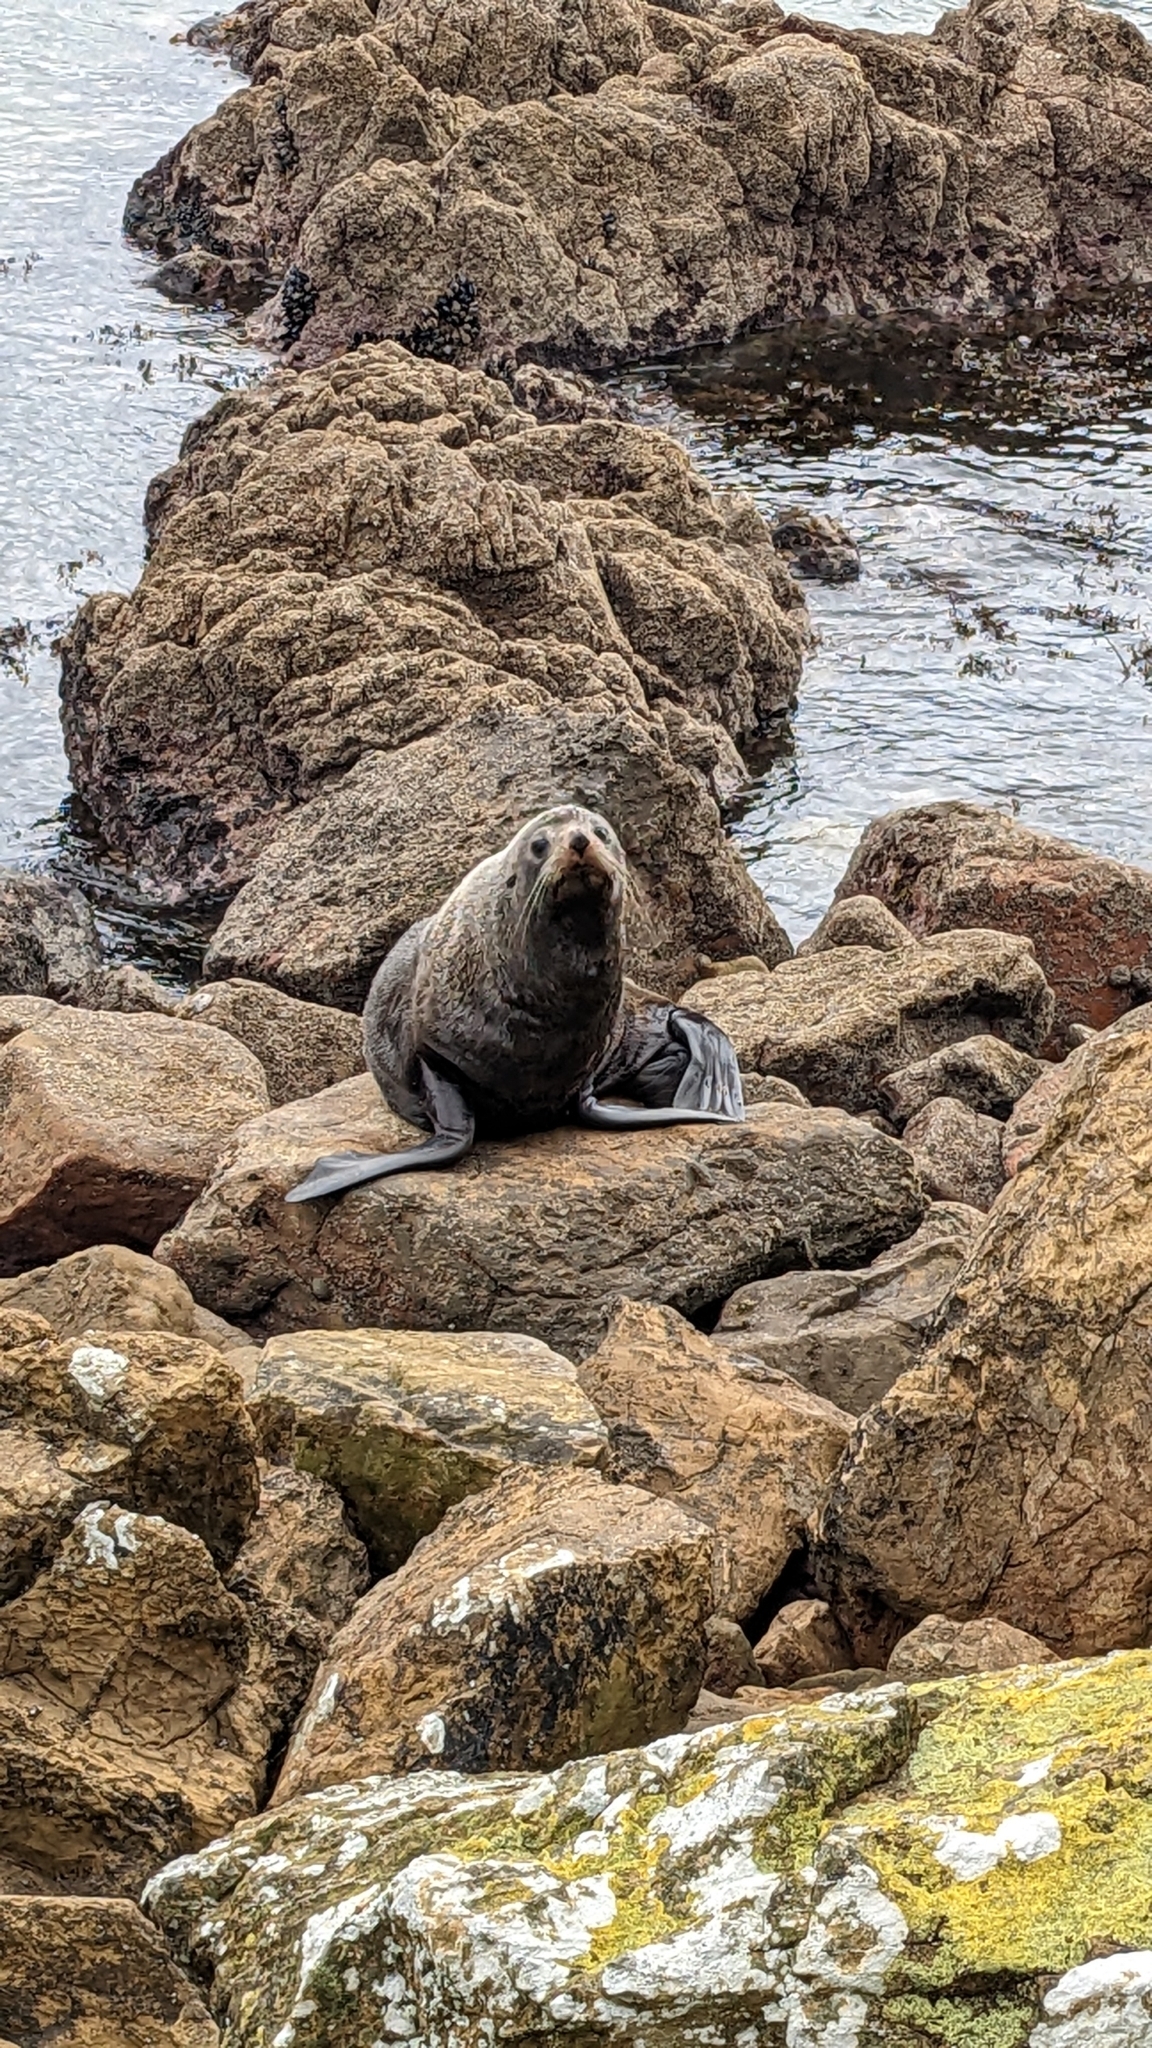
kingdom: Animalia
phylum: Chordata
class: Mammalia
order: Carnivora
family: Otariidae
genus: Arctocephalus
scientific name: Arctocephalus forsteri
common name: New zealand fur seal
